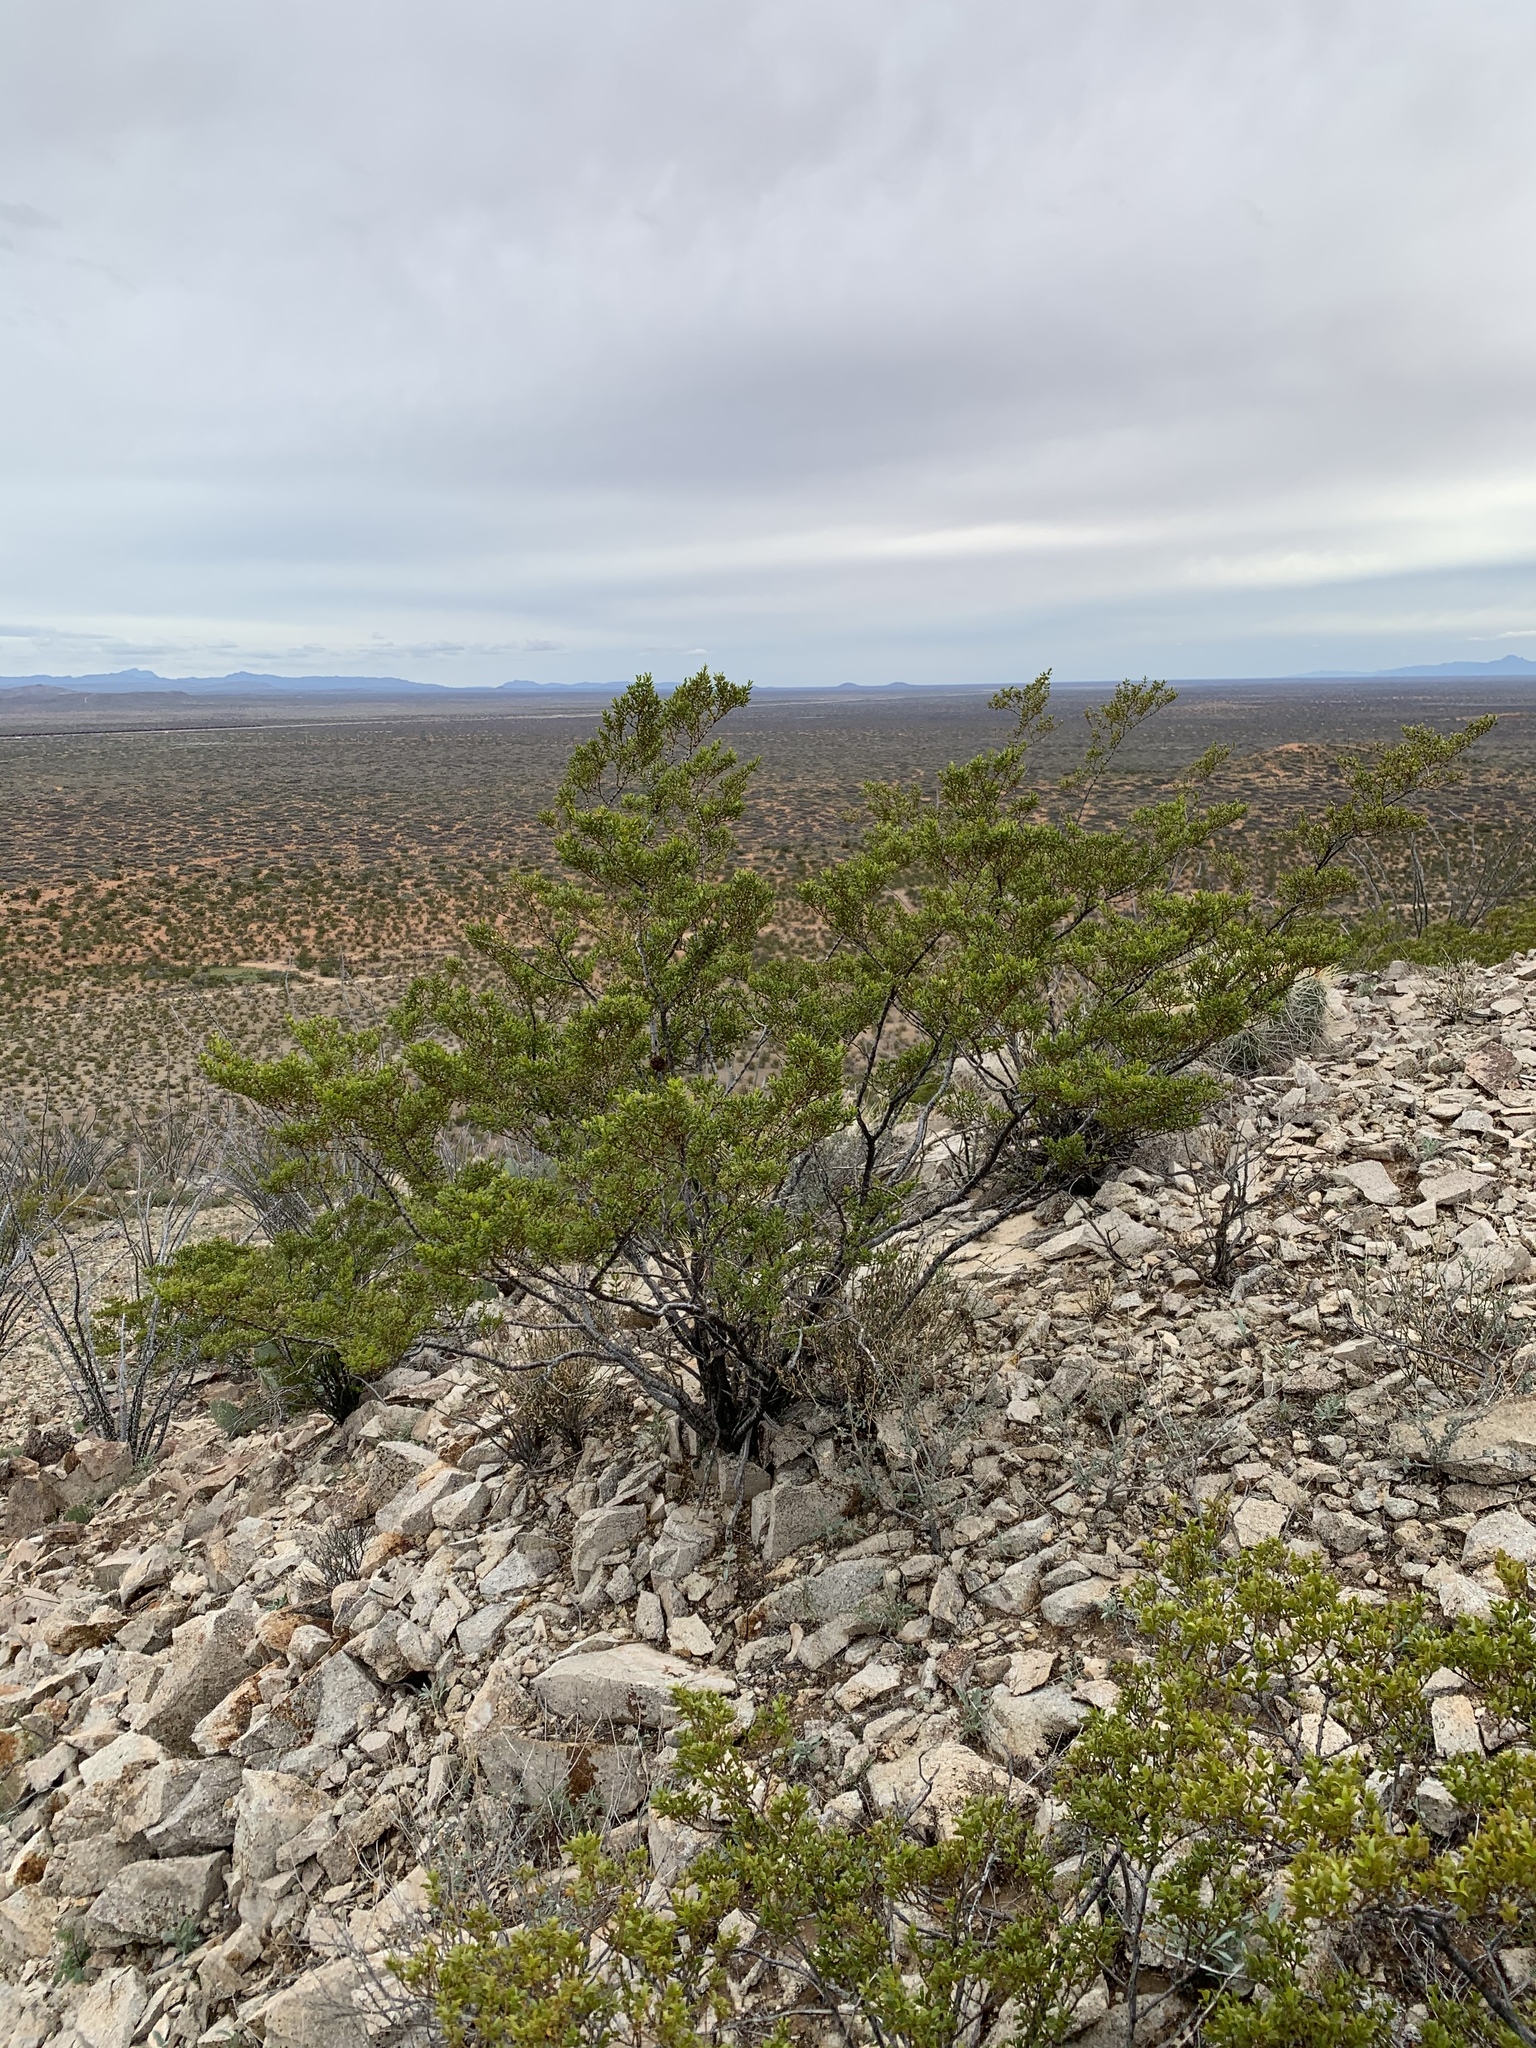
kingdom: Plantae
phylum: Tracheophyta
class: Magnoliopsida
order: Zygophyllales
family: Zygophyllaceae
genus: Larrea
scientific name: Larrea tridentata
